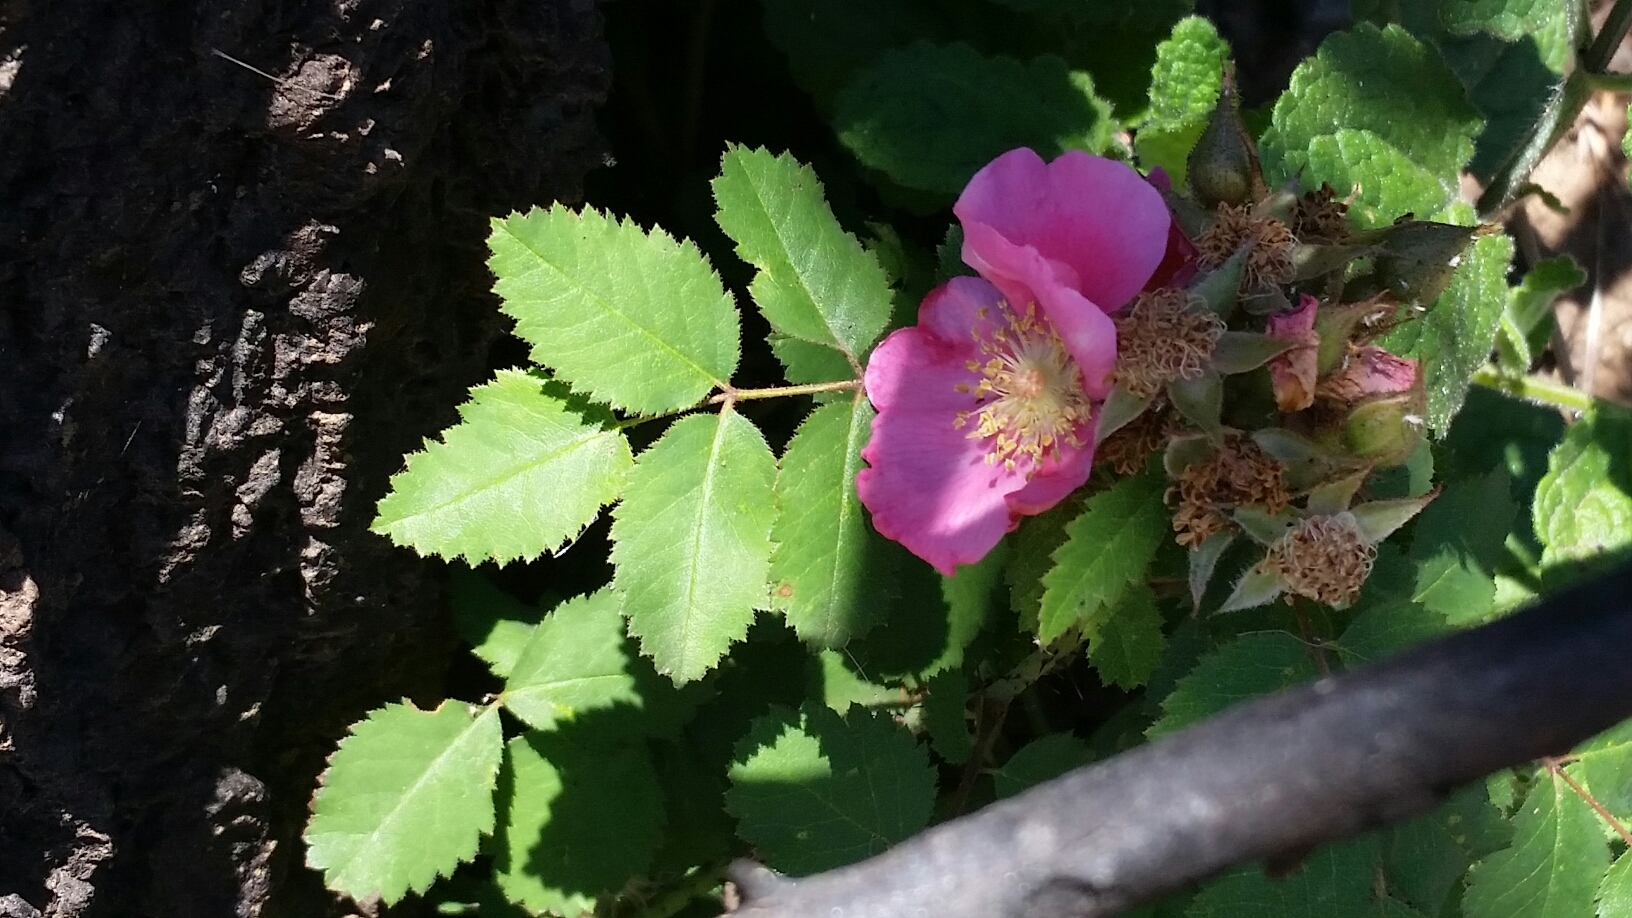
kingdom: Plantae
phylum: Tracheophyta
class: Magnoliopsida
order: Rosales
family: Rosaceae
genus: Rosa
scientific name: Rosa spithamea
